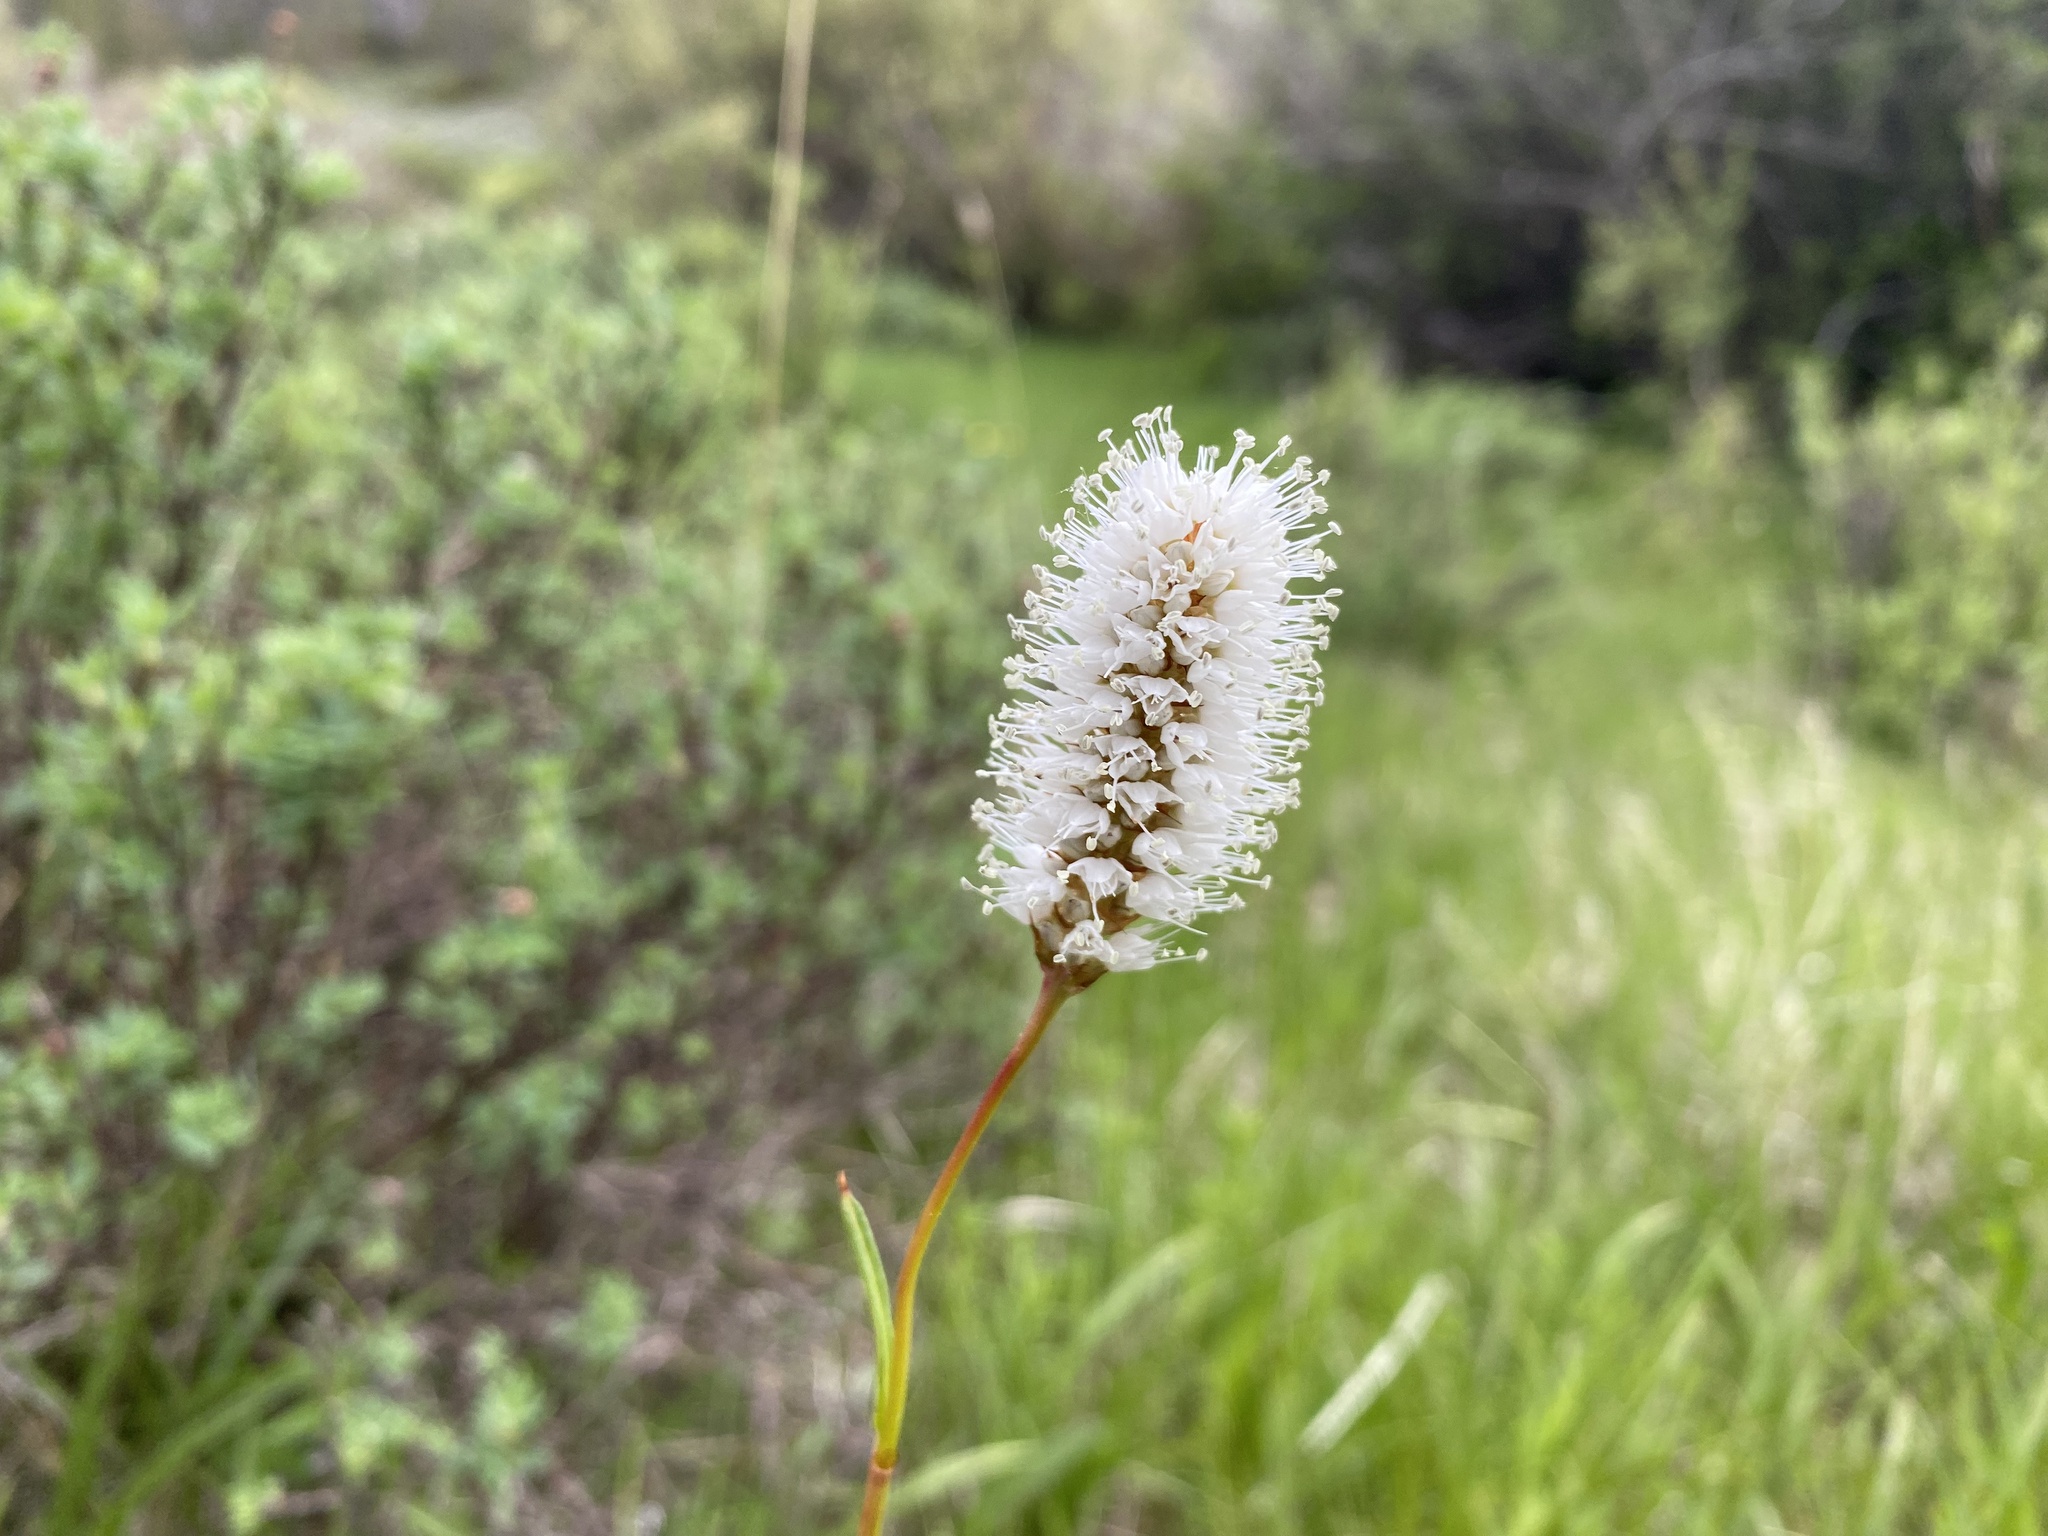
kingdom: Plantae
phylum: Tracheophyta
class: Magnoliopsida
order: Caryophyllales
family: Polygonaceae
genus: Bistorta
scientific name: Bistorta bistortoides
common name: American bistort
